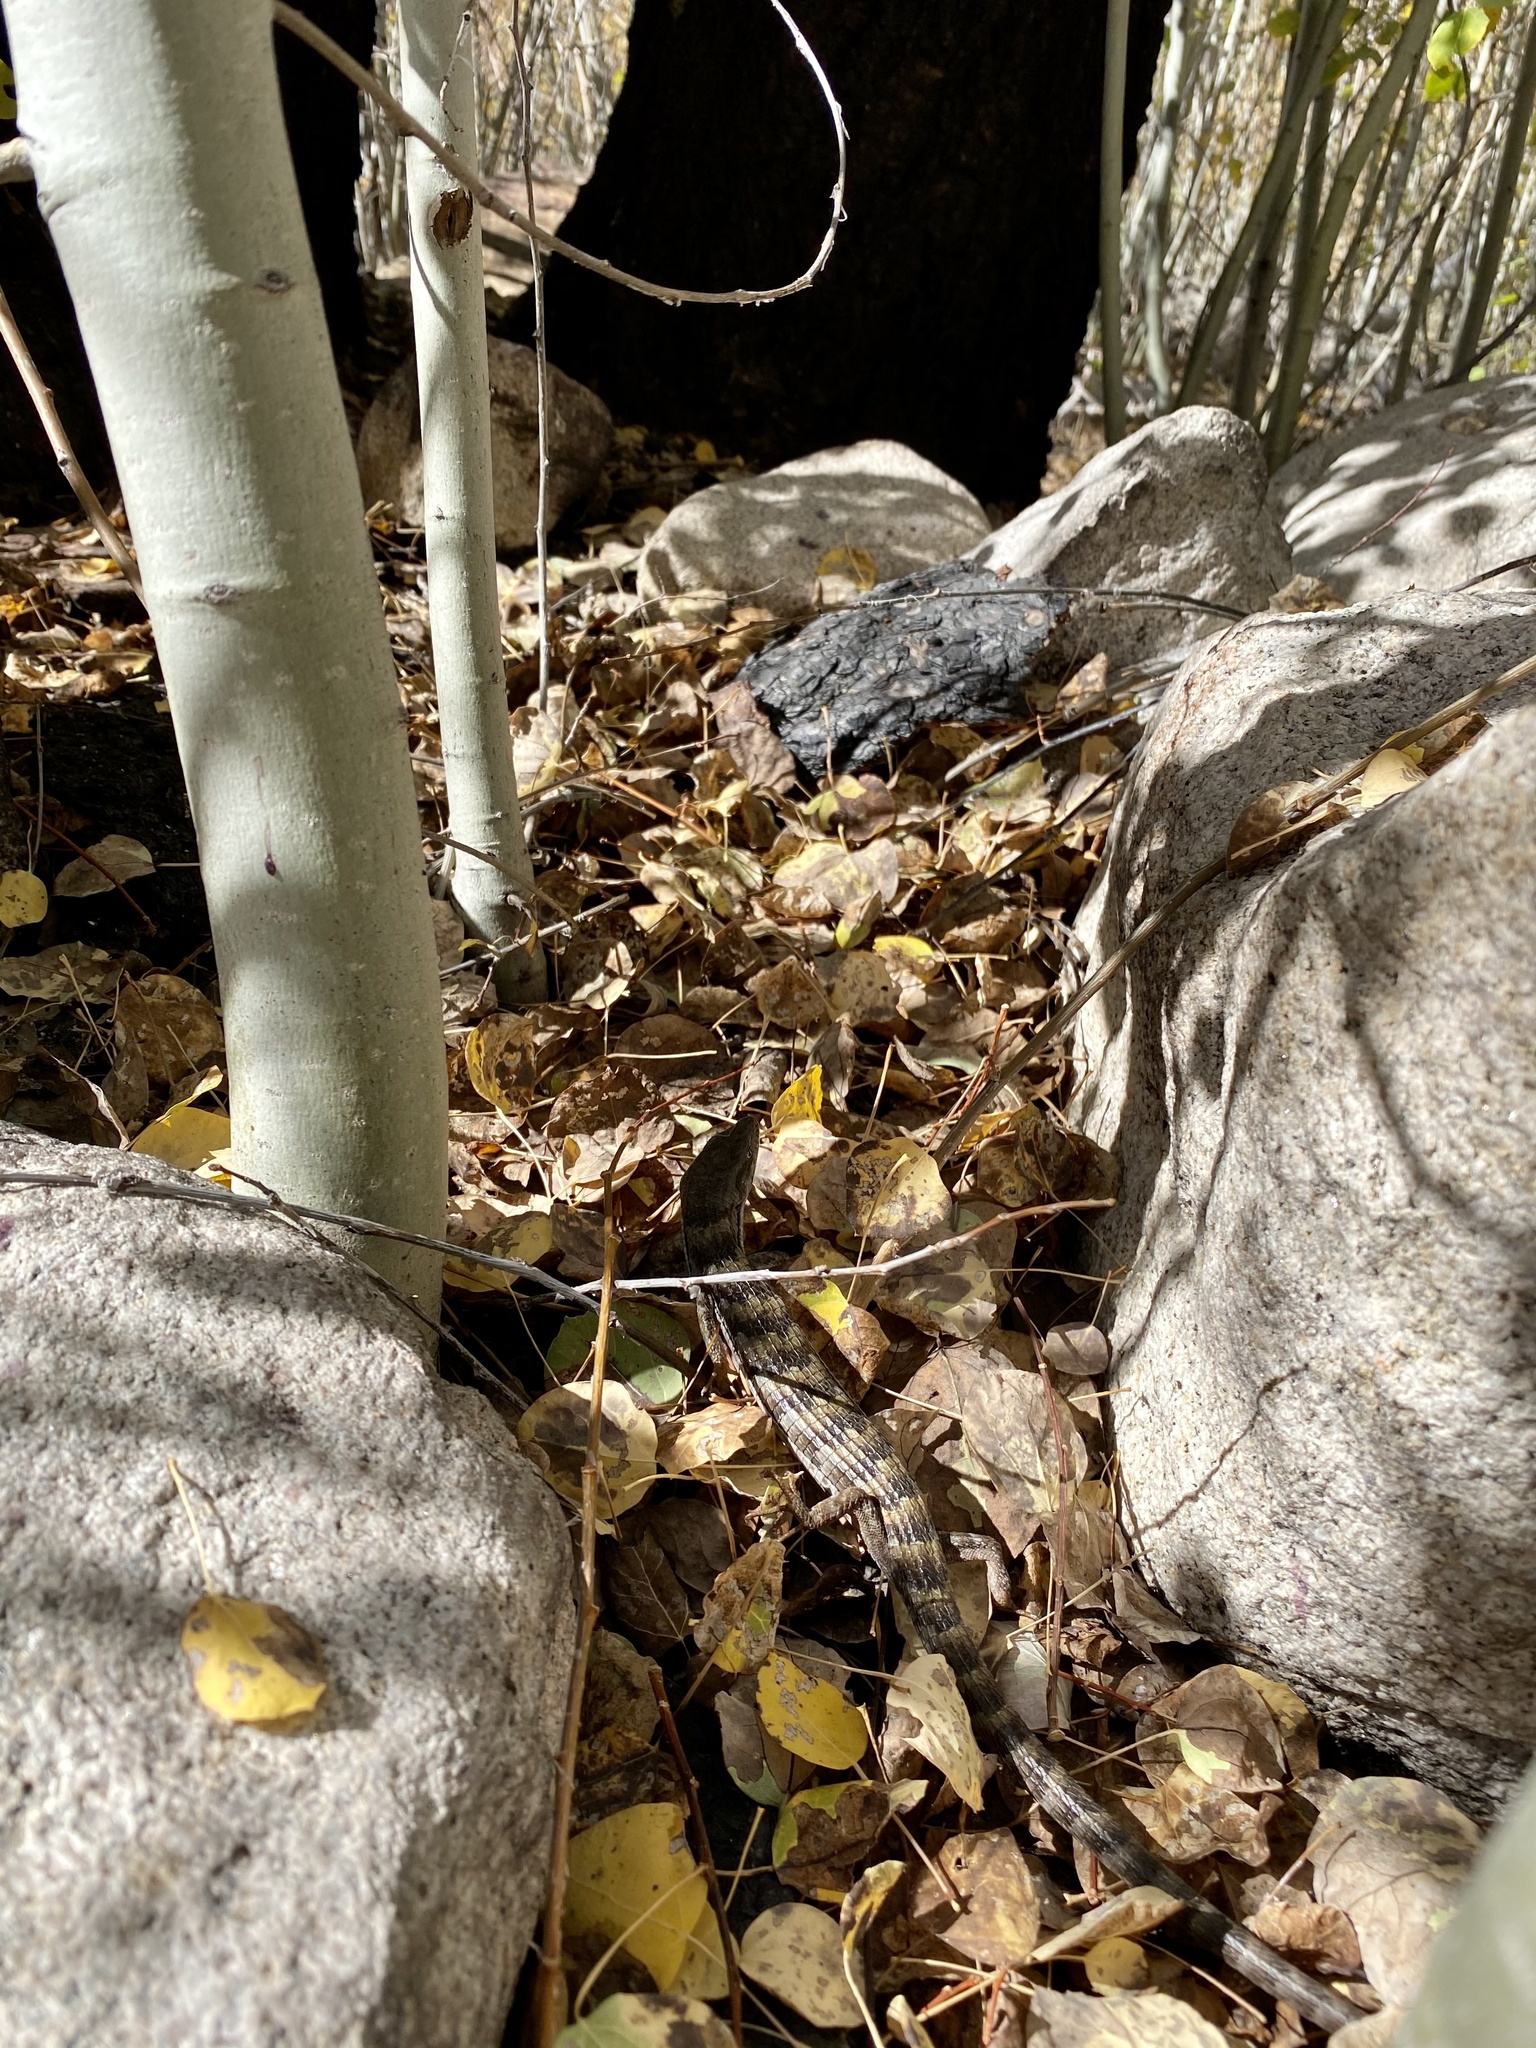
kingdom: Animalia
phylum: Chordata
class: Squamata
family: Anguidae
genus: Elgaria
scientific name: Elgaria multicarinata
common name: Southern alligator lizard
